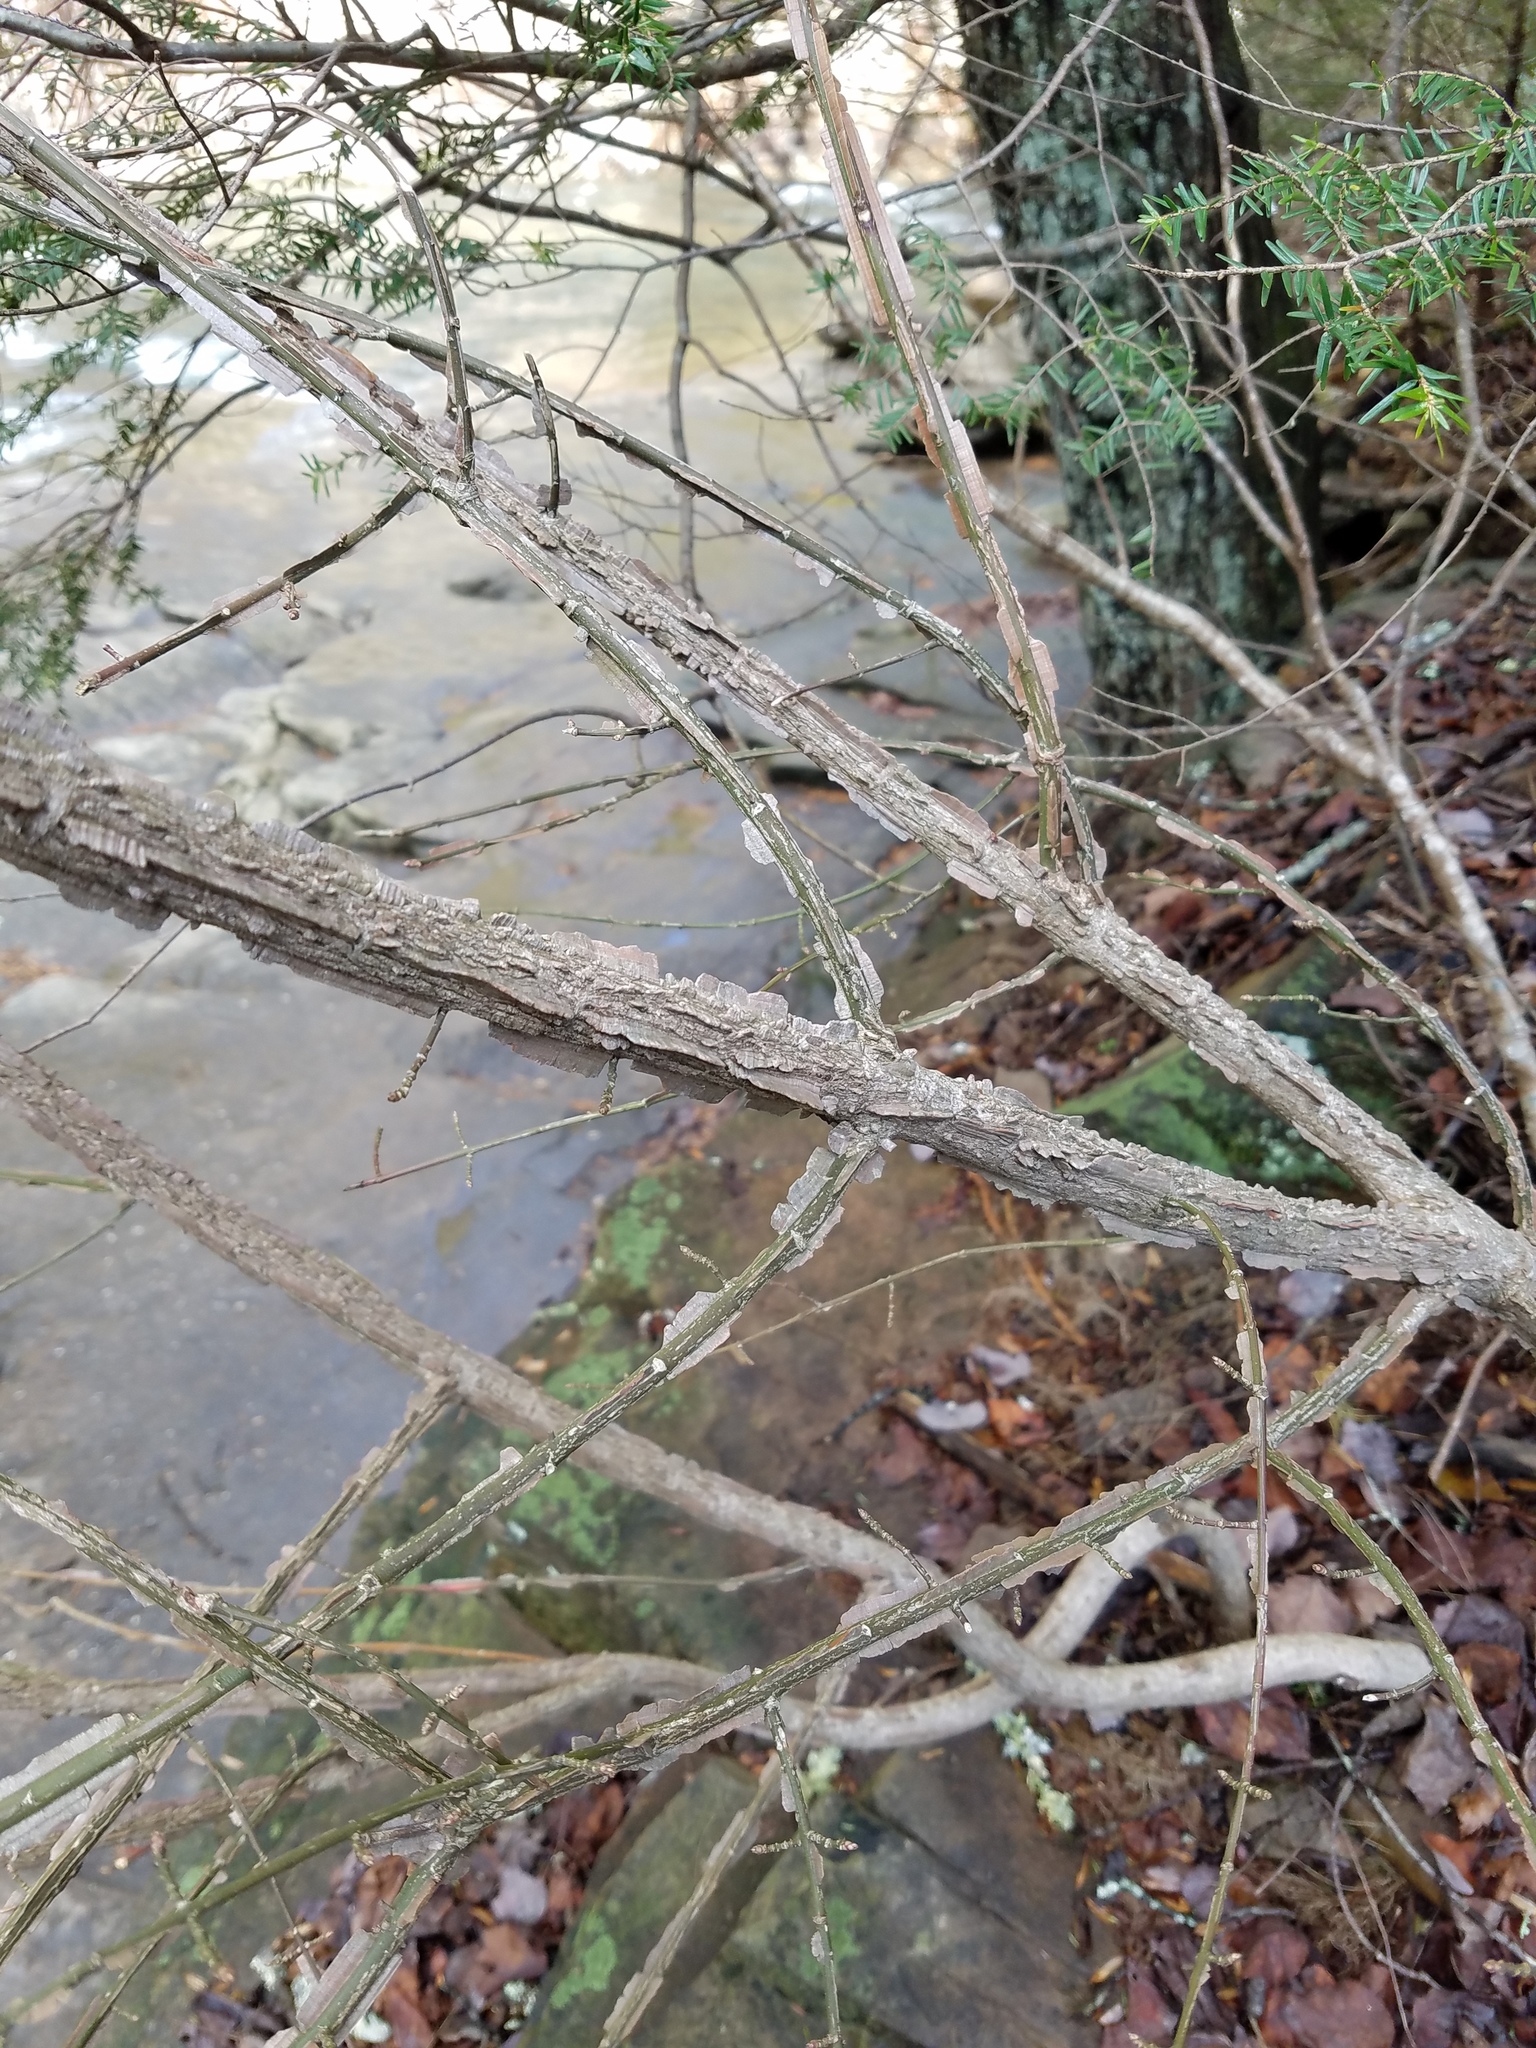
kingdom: Plantae
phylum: Tracheophyta
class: Magnoliopsida
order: Celastrales
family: Celastraceae
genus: Euonymus
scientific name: Euonymus alatus
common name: Winged euonymus
